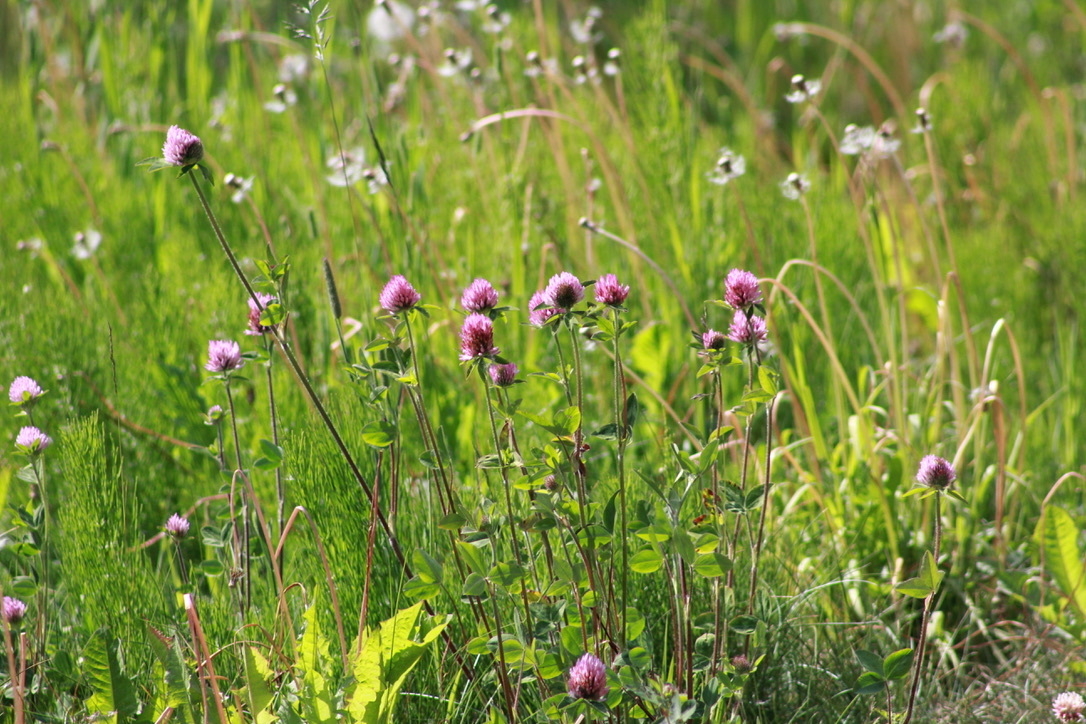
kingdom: Plantae
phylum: Tracheophyta
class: Magnoliopsida
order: Fabales
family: Fabaceae
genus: Trifolium
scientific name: Trifolium pratense
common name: Red clover
